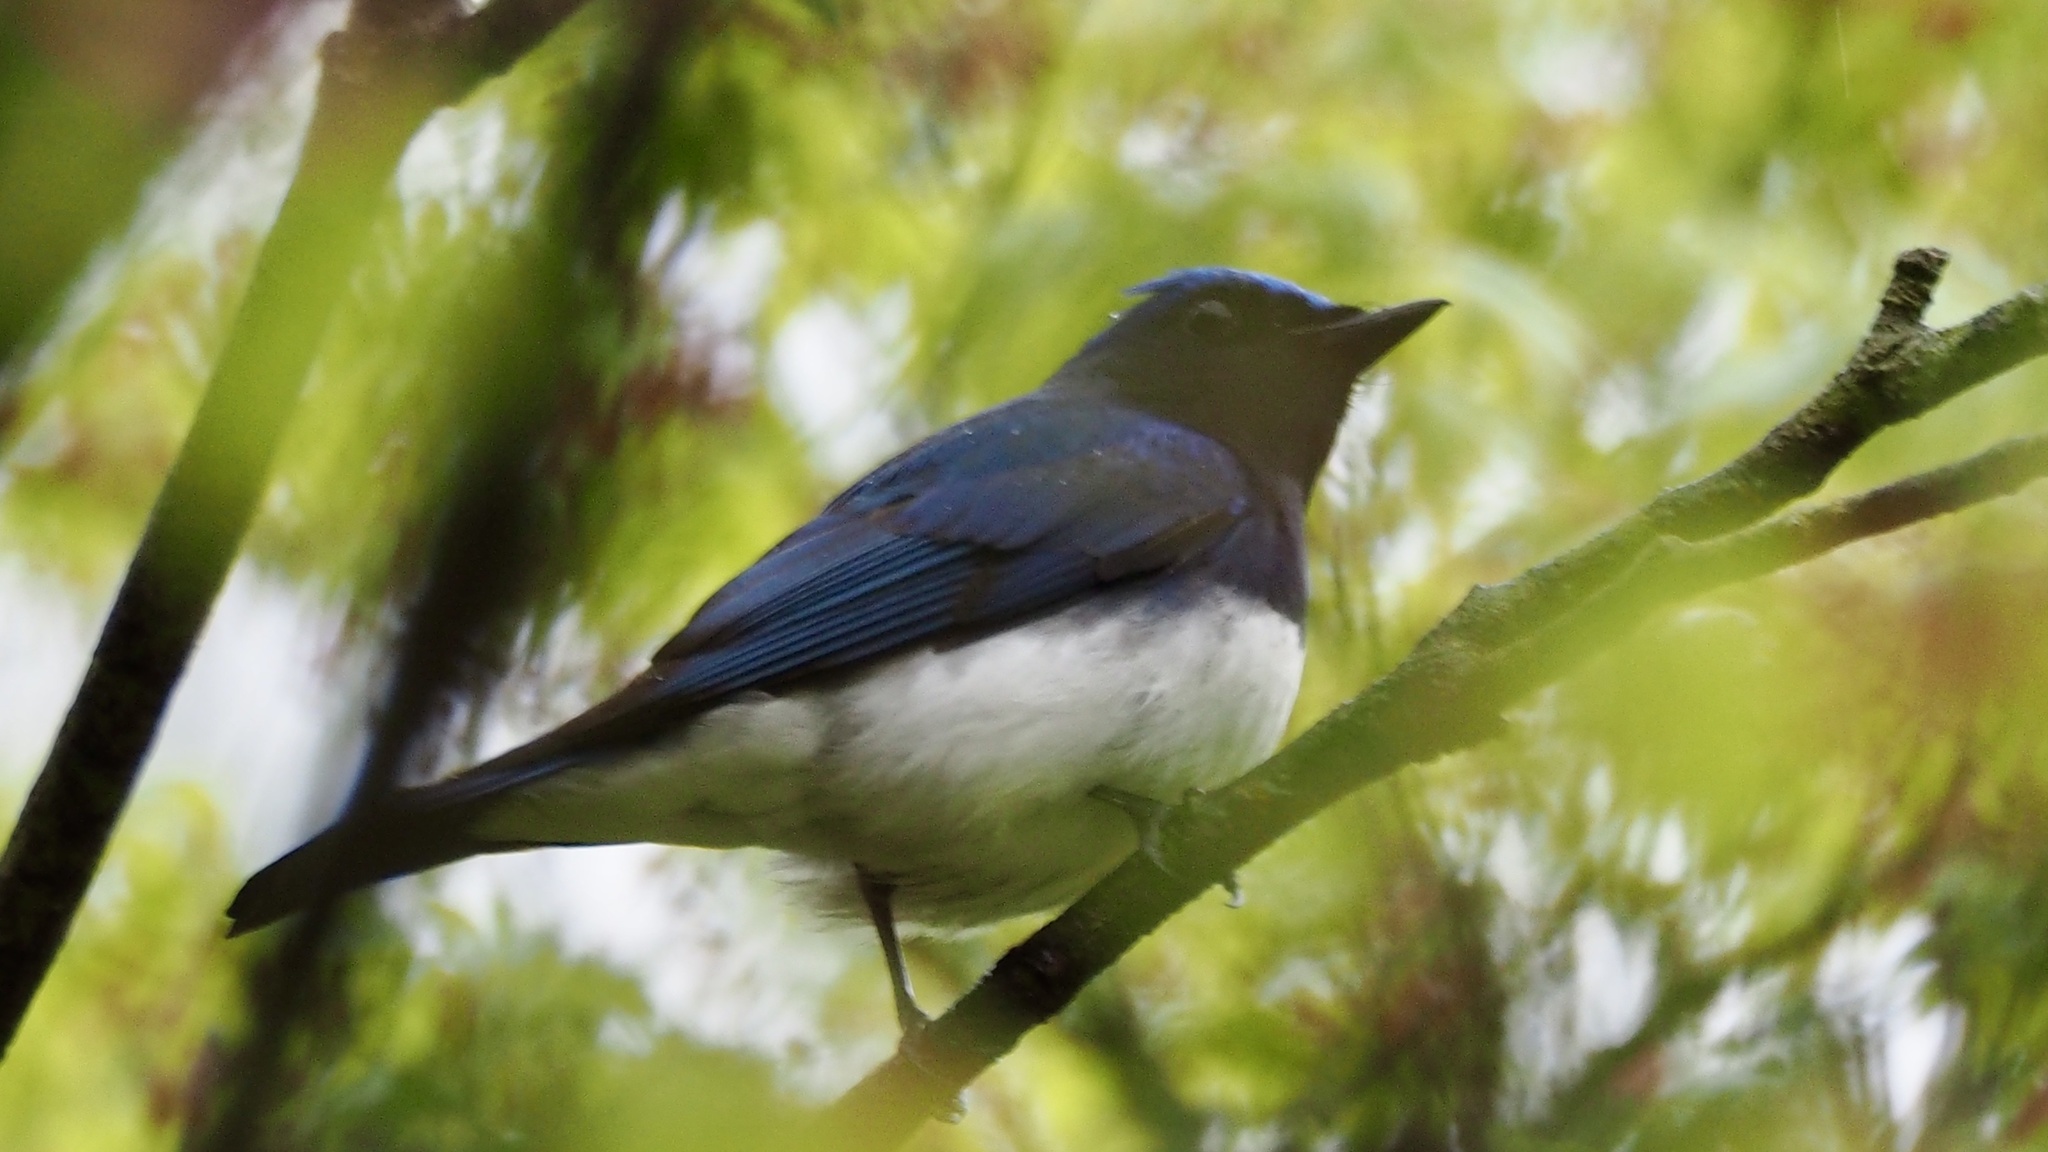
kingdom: Animalia
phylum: Chordata
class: Aves
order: Passeriformes
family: Muscicapidae
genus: Cyanoptila
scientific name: Cyanoptila cyanomelana
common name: Blue-and-white flycatcher
